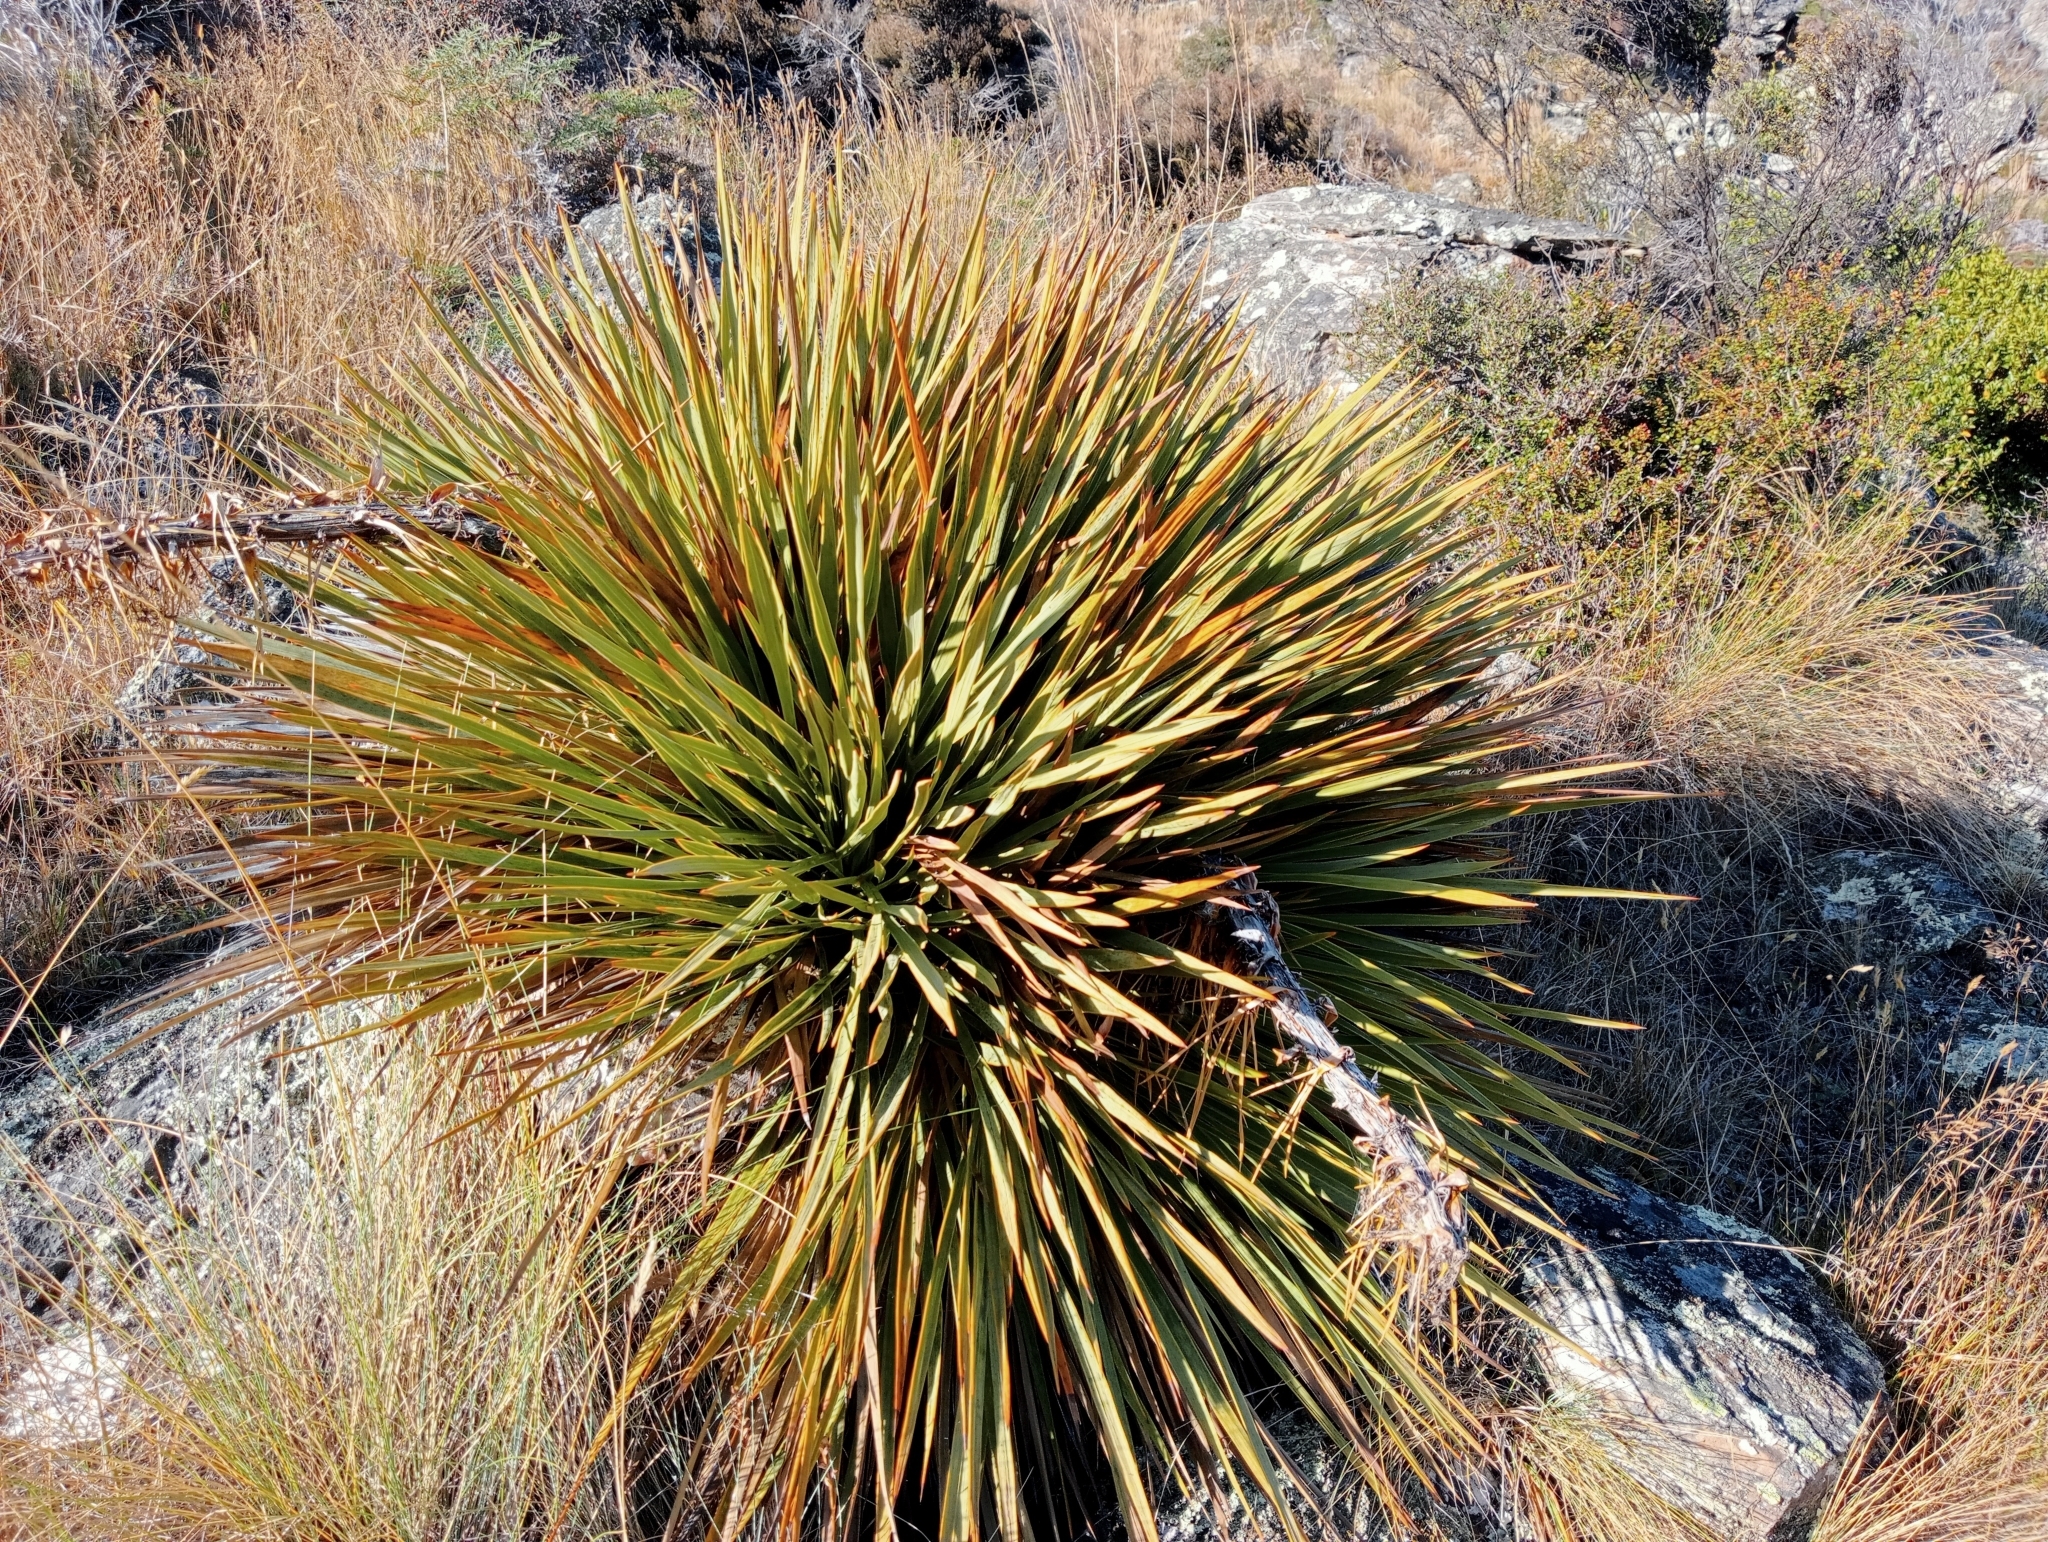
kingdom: Plantae
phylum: Tracheophyta
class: Magnoliopsida
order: Apiales
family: Apiaceae
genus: Aciphylla
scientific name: Aciphylla aurea
